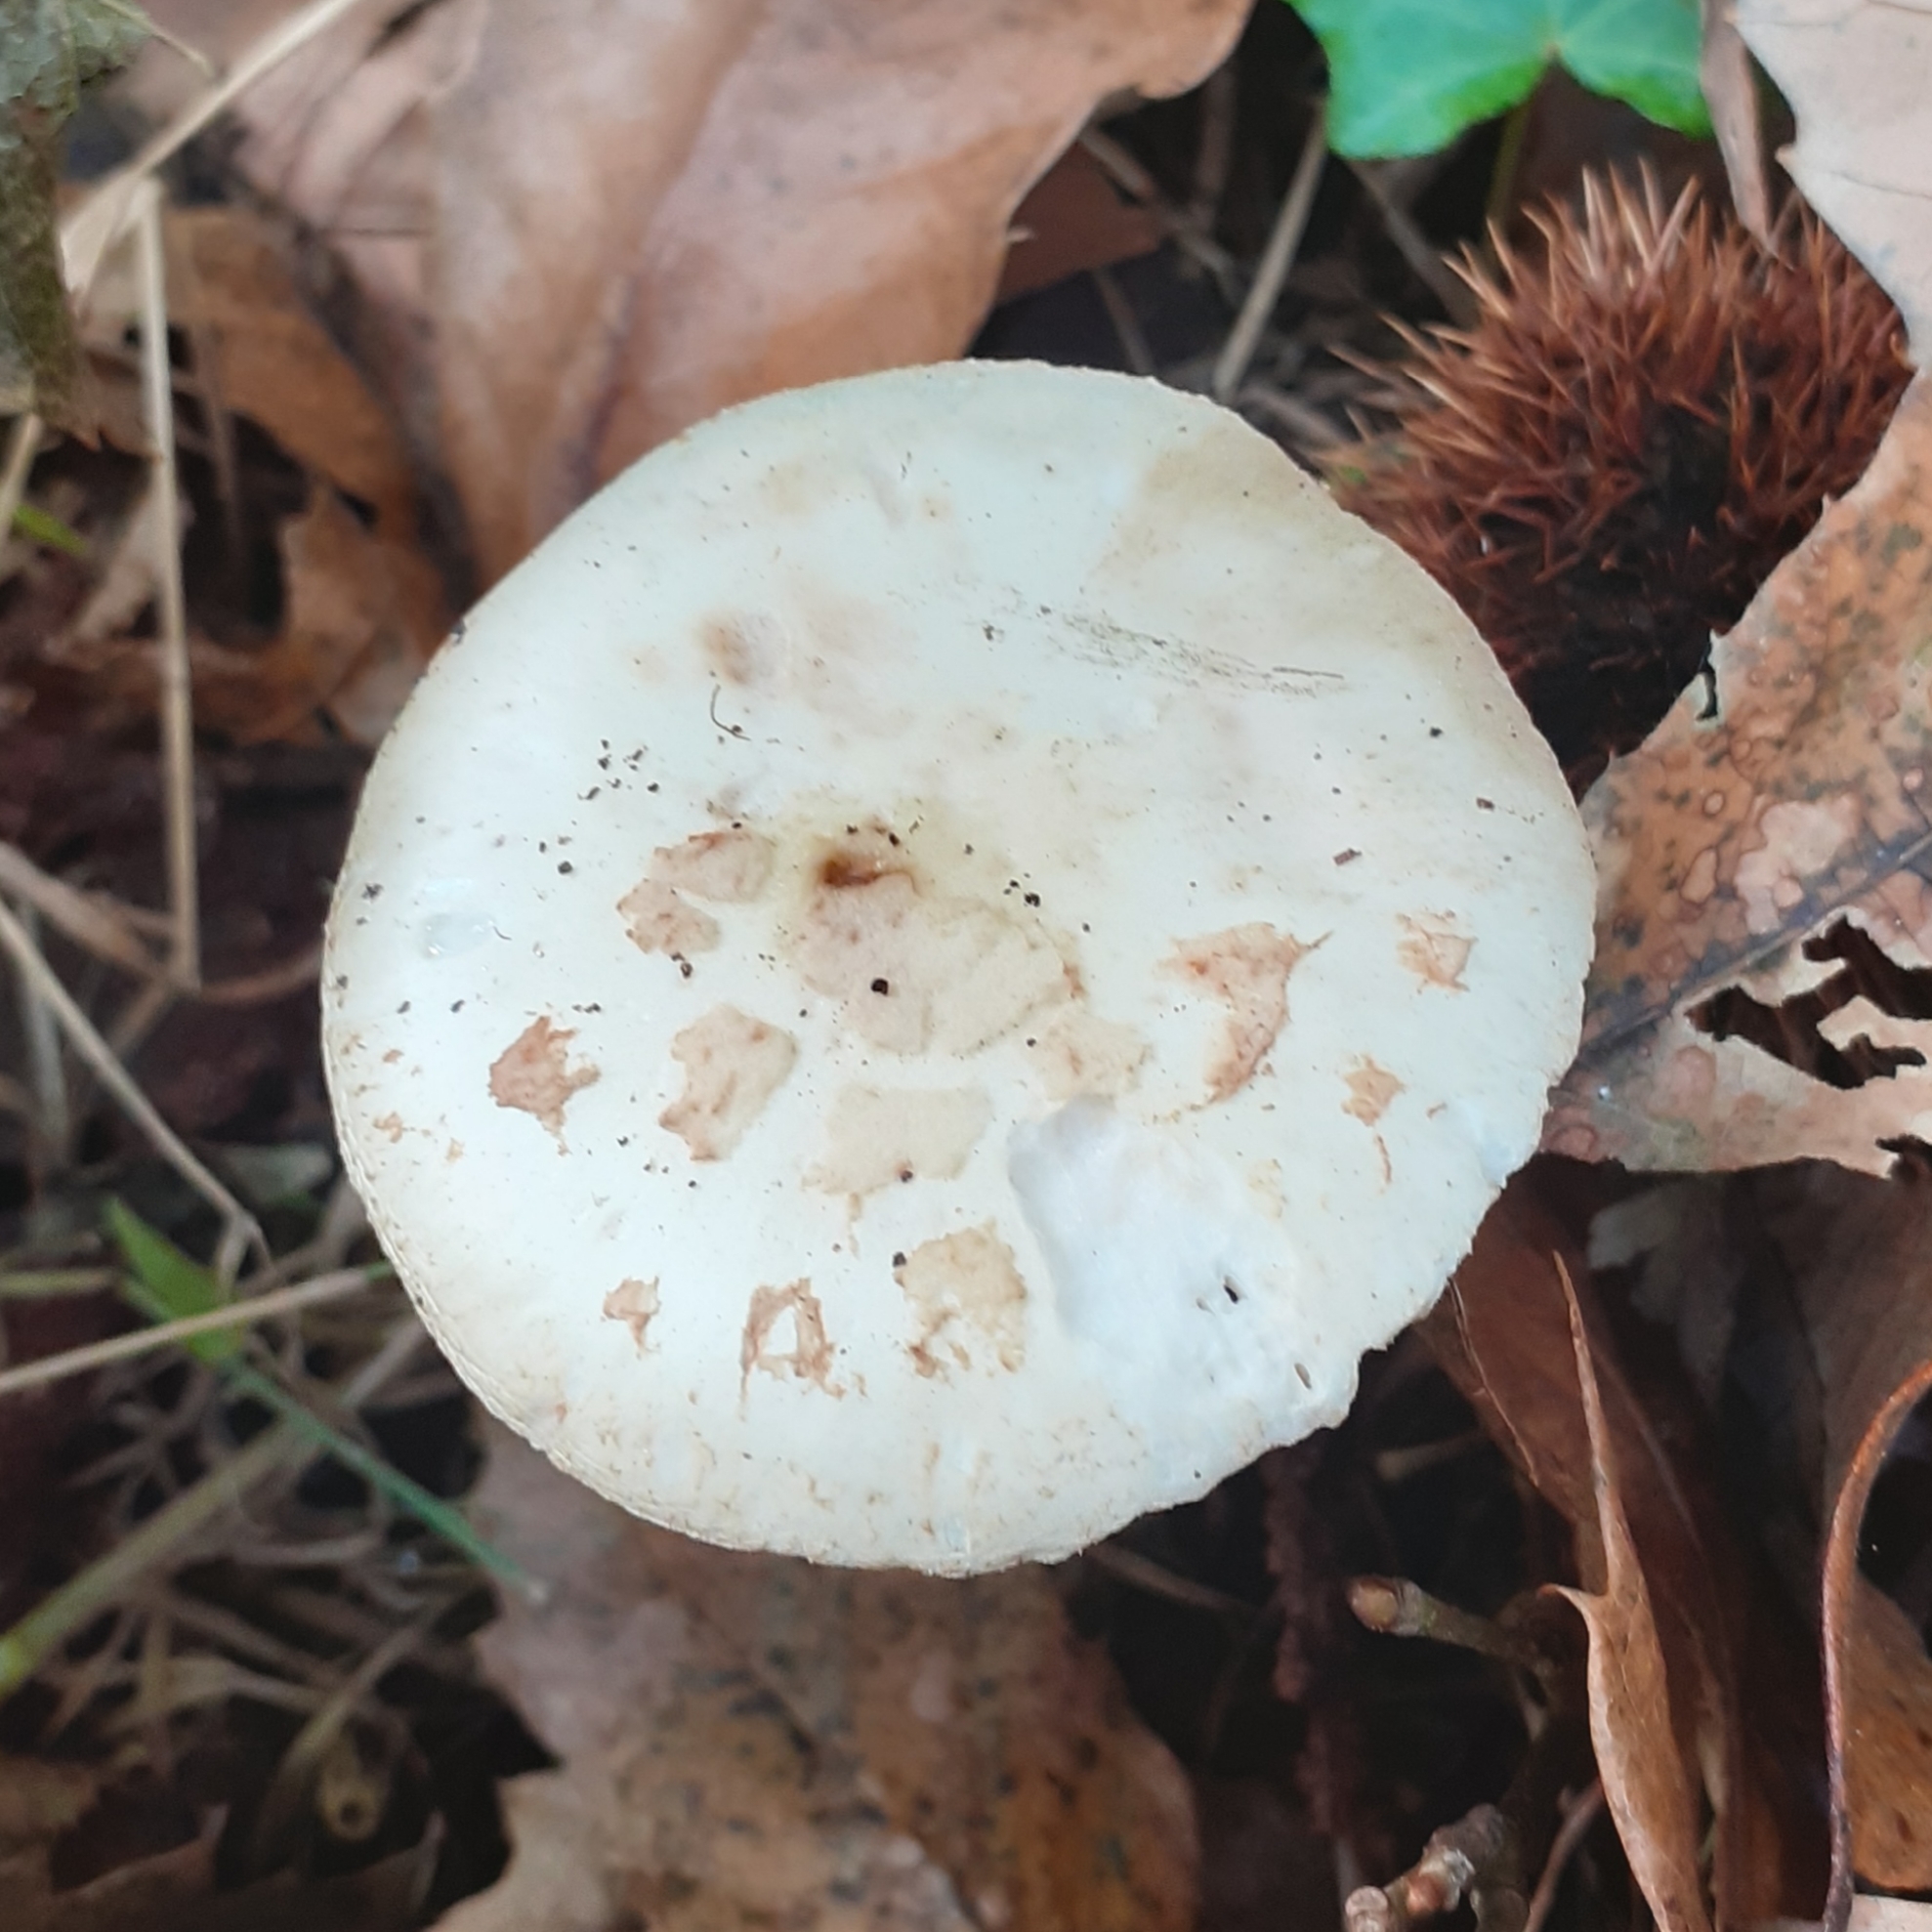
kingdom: Fungi
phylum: Basidiomycota
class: Agaricomycetes
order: Agaricales
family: Amanitaceae
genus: Amanita
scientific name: Amanita citrina
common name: False death-cap
